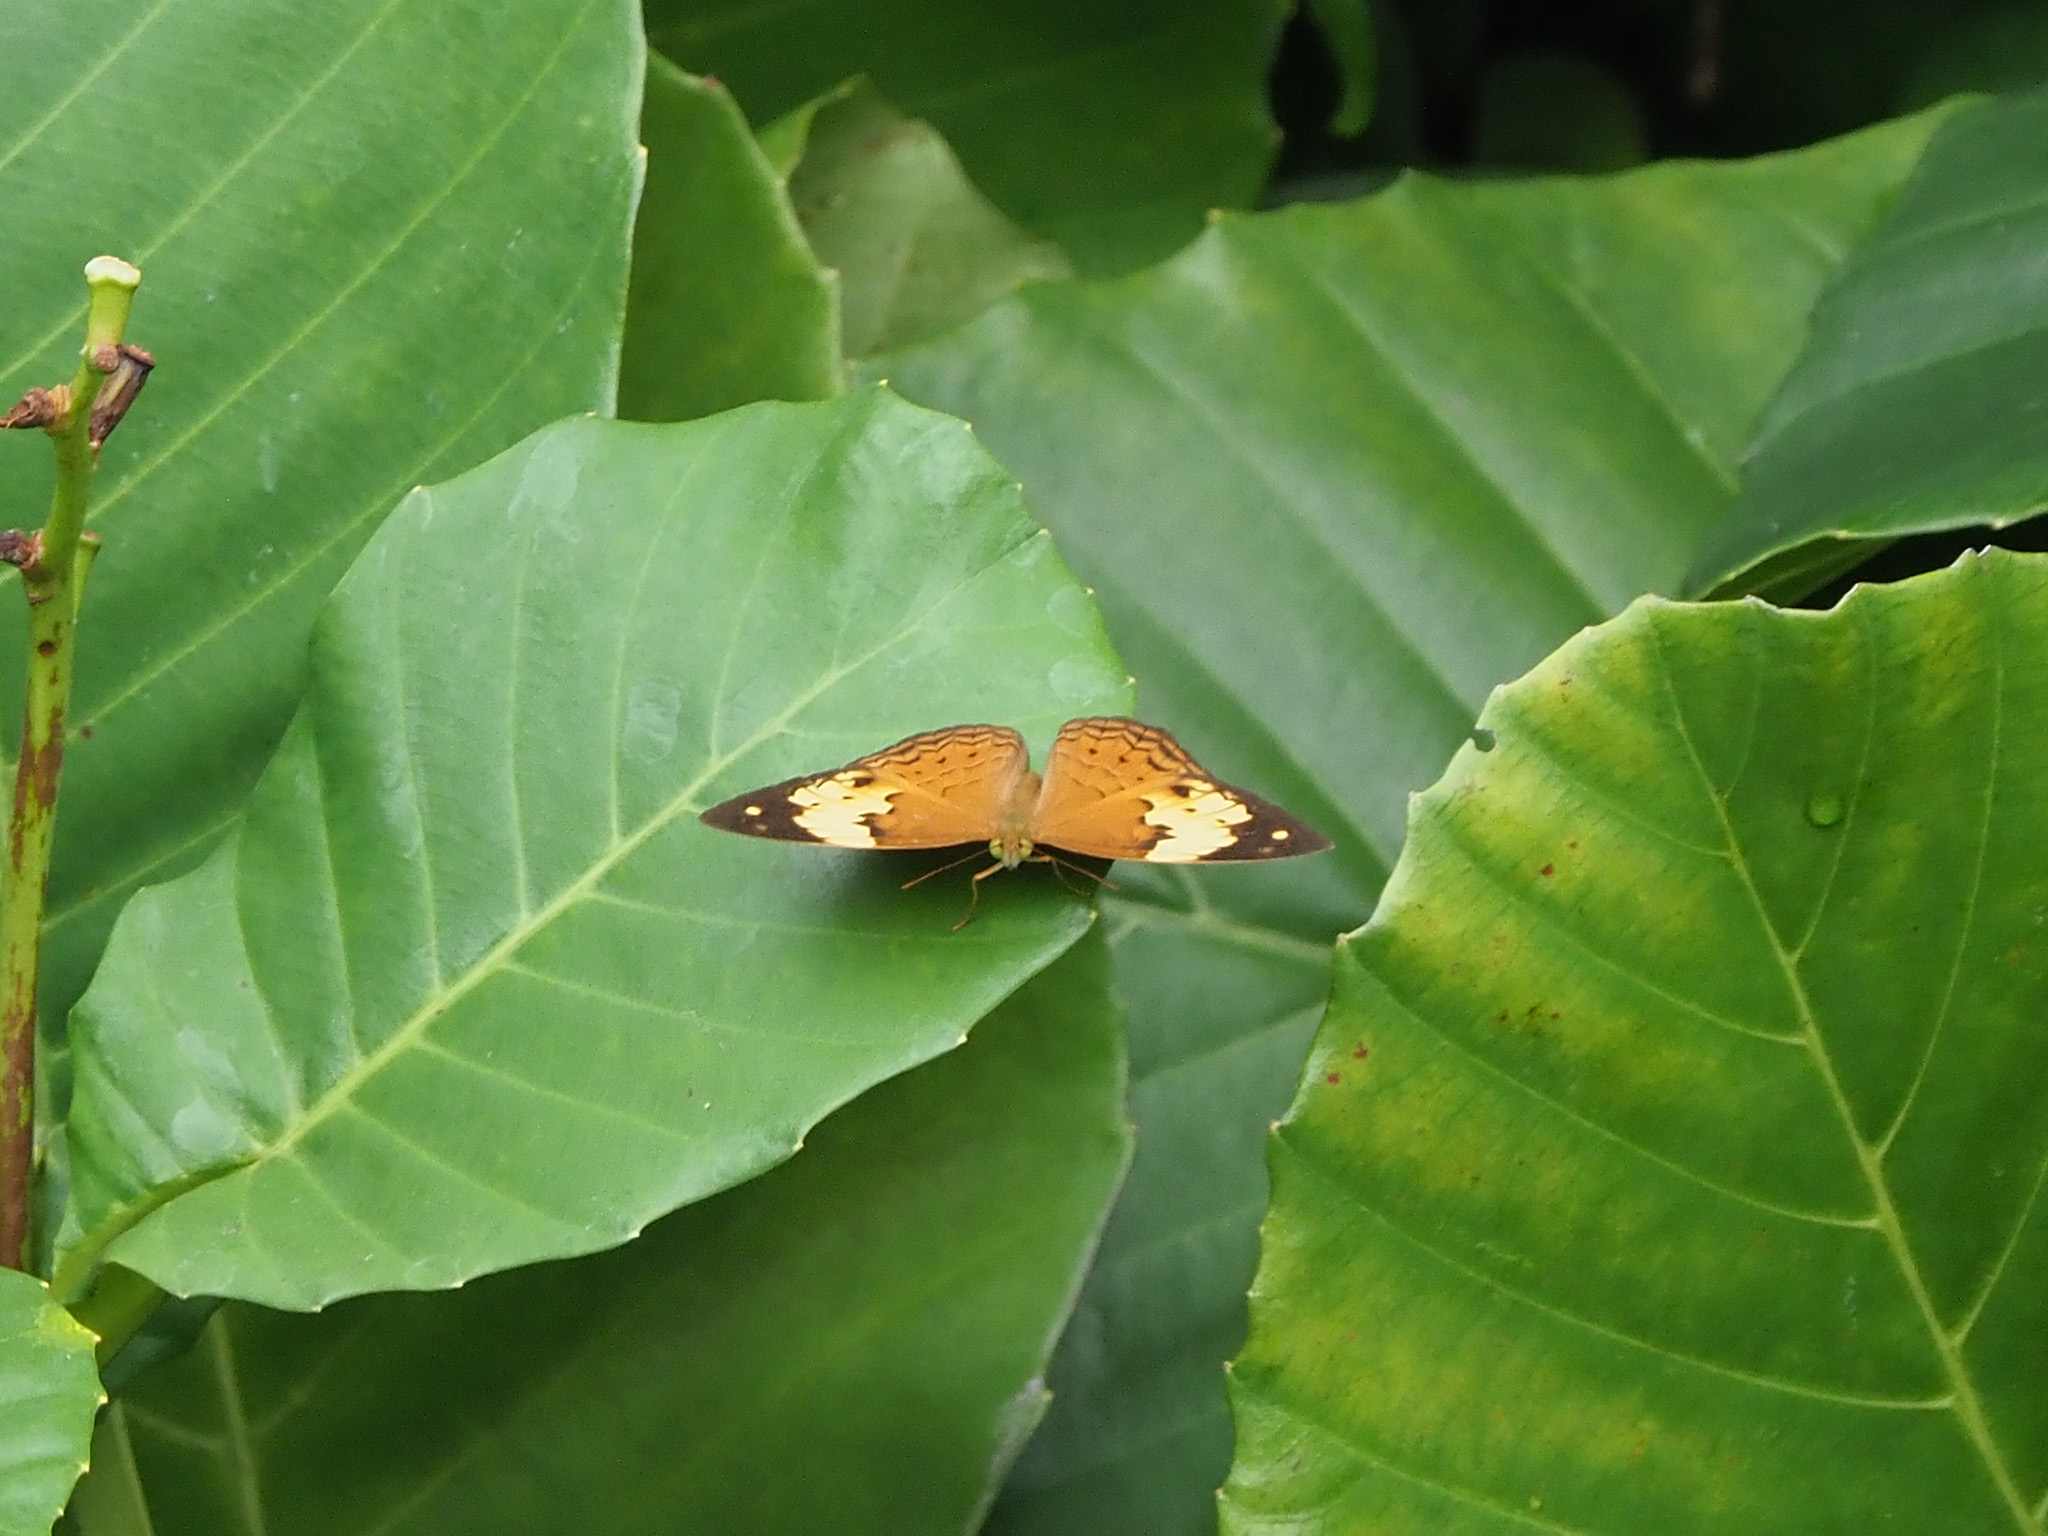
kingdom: Animalia
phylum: Arthropoda
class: Insecta
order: Lepidoptera
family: Nymphalidae
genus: Cupha
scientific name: Cupha erymanthis
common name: Rustic
